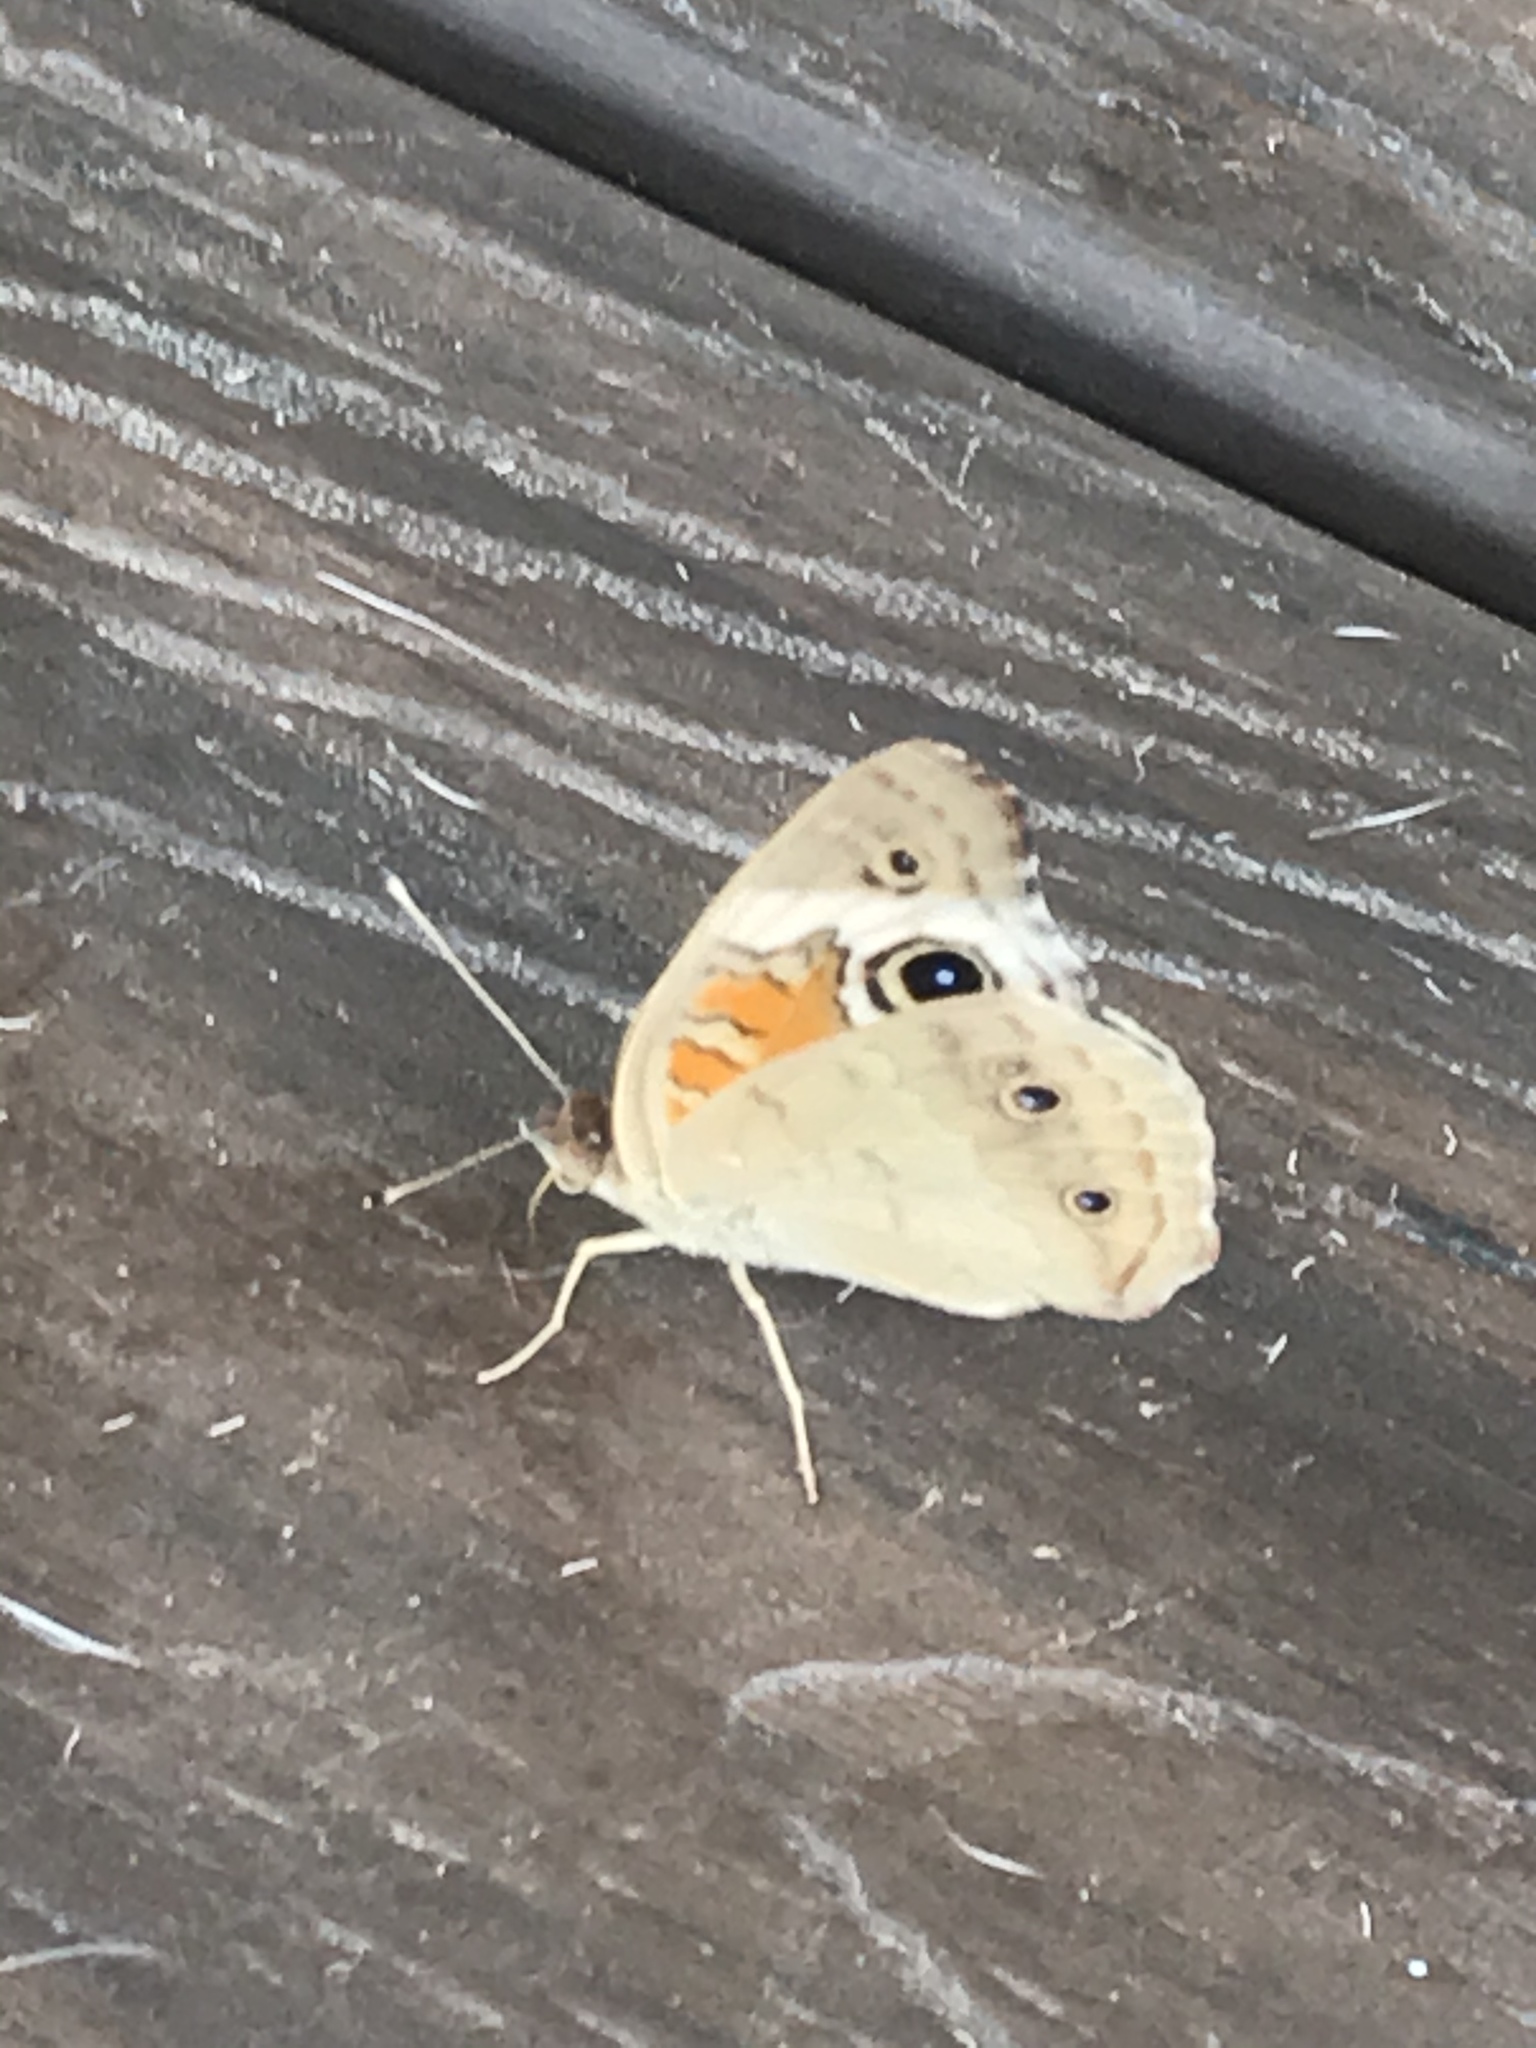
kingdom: Animalia
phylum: Arthropoda
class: Insecta
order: Lepidoptera
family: Nymphalidae
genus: Junonia
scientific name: Junonia coenia
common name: Common buckeye
